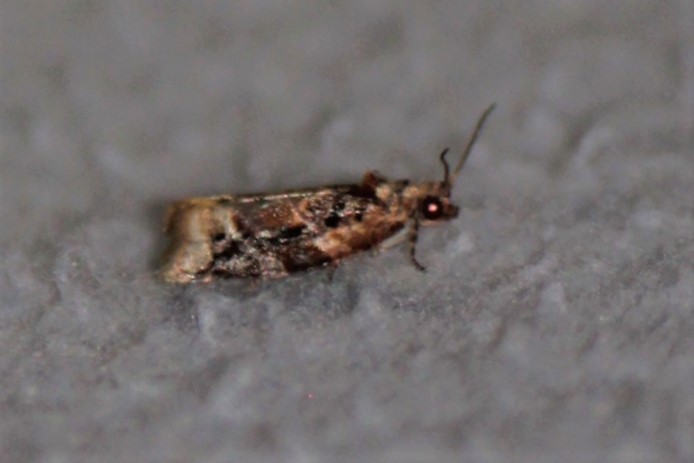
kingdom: Animalia
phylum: Arthropoda
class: Insecta
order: Lepidoptera
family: Tortricidae
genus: Argyrotaenia
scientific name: Argyrotaenia velutinana
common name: Red-banded leafroller moth
